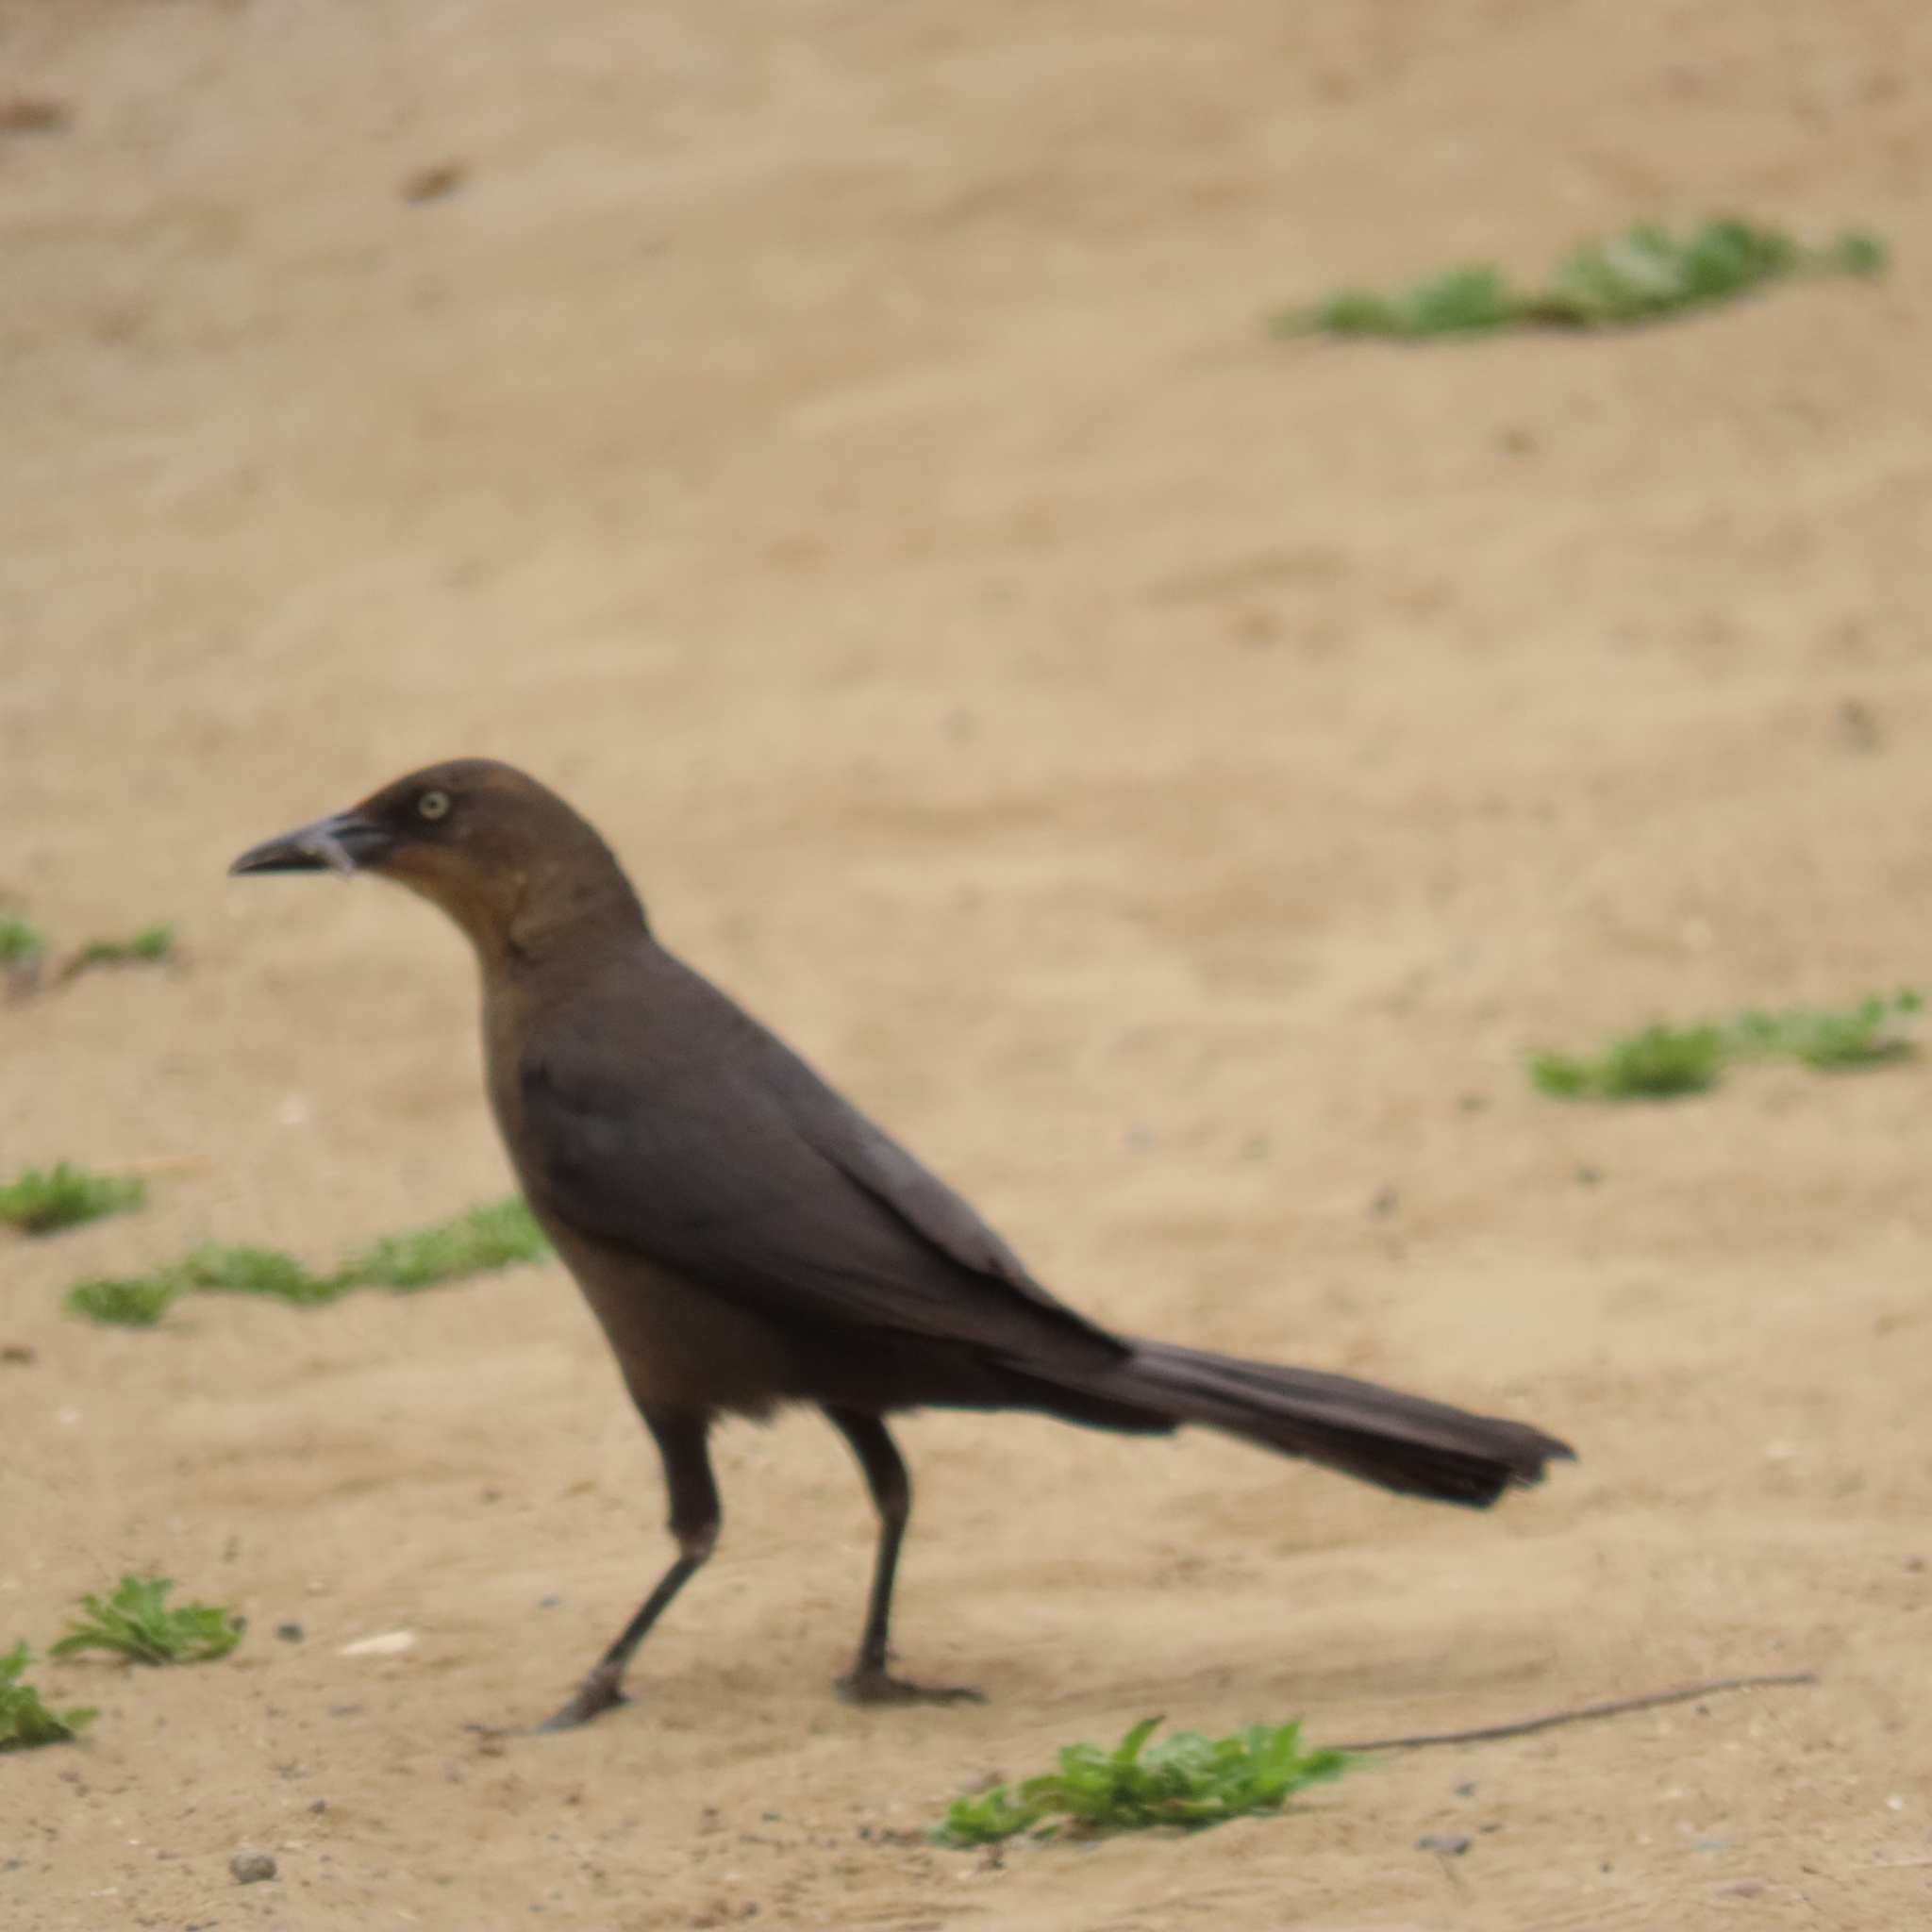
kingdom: Animalia
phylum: Chordata
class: Aves
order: Passeriformes
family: Icteridae
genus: Quiscalus
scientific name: Quiscalus mexicanus
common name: Great-tailed grackle
